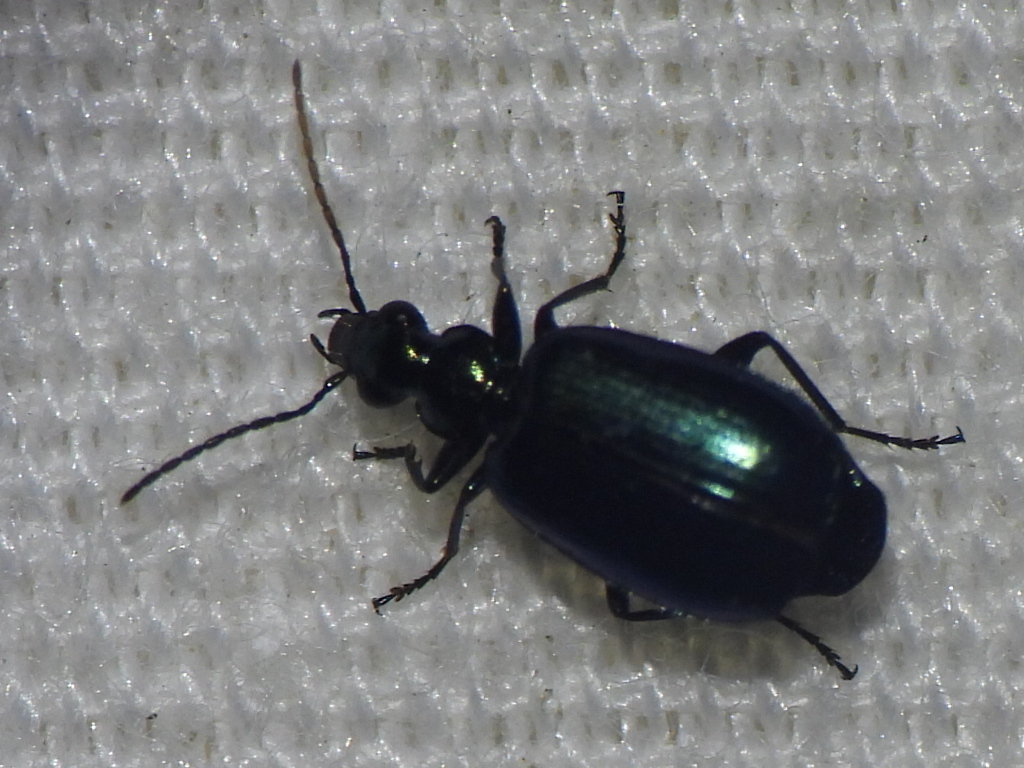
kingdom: Animalia
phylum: Arthropoda
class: Insecta
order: Coleoptera
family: Carabidae
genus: Lebia
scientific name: Lebia viridis
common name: Flower lebia beetle
